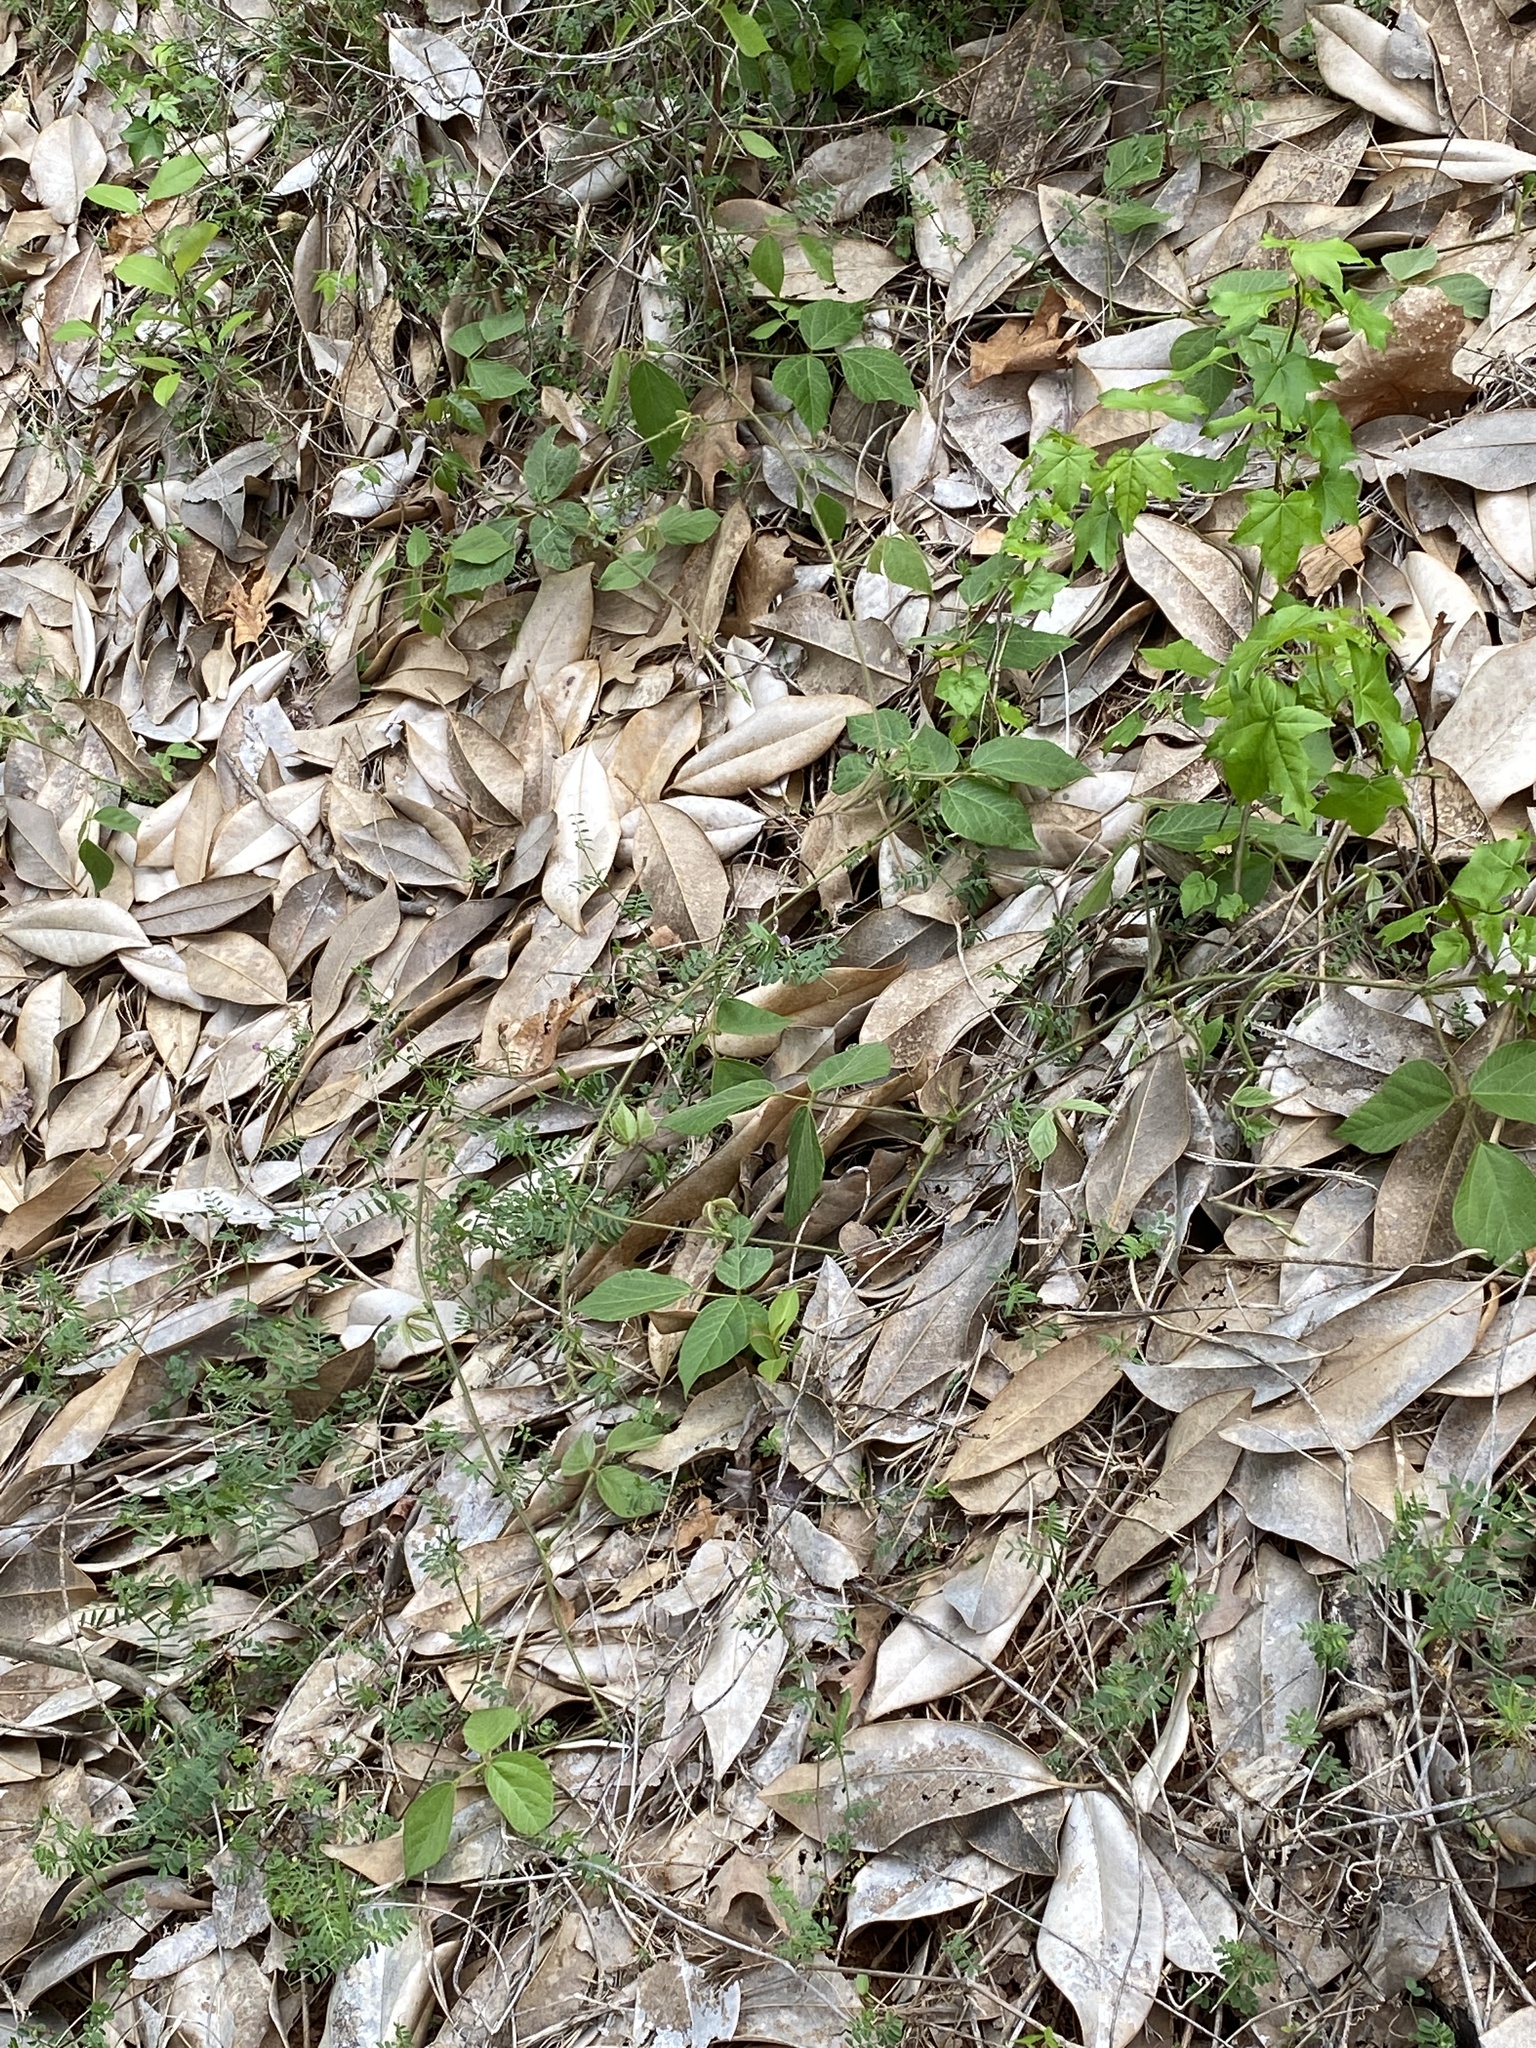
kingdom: Plantae
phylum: Tracheophyta
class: Magnoliopsida
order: Fabales
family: Fabaceae
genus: Pueraria
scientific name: Pueraria montana
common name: Kudzu
